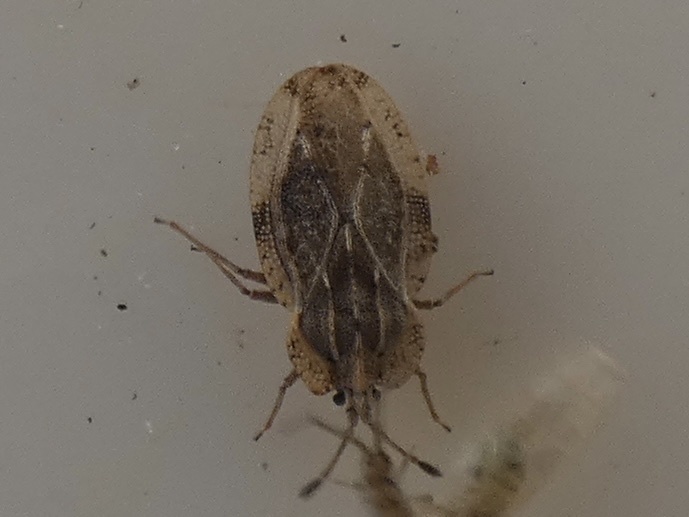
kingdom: Animalia
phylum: Arthropoda
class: Insecta
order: Hemiptera
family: Tingidae
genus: Tingis
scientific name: Tingis ampliata
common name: Creeping thistle lacebug
